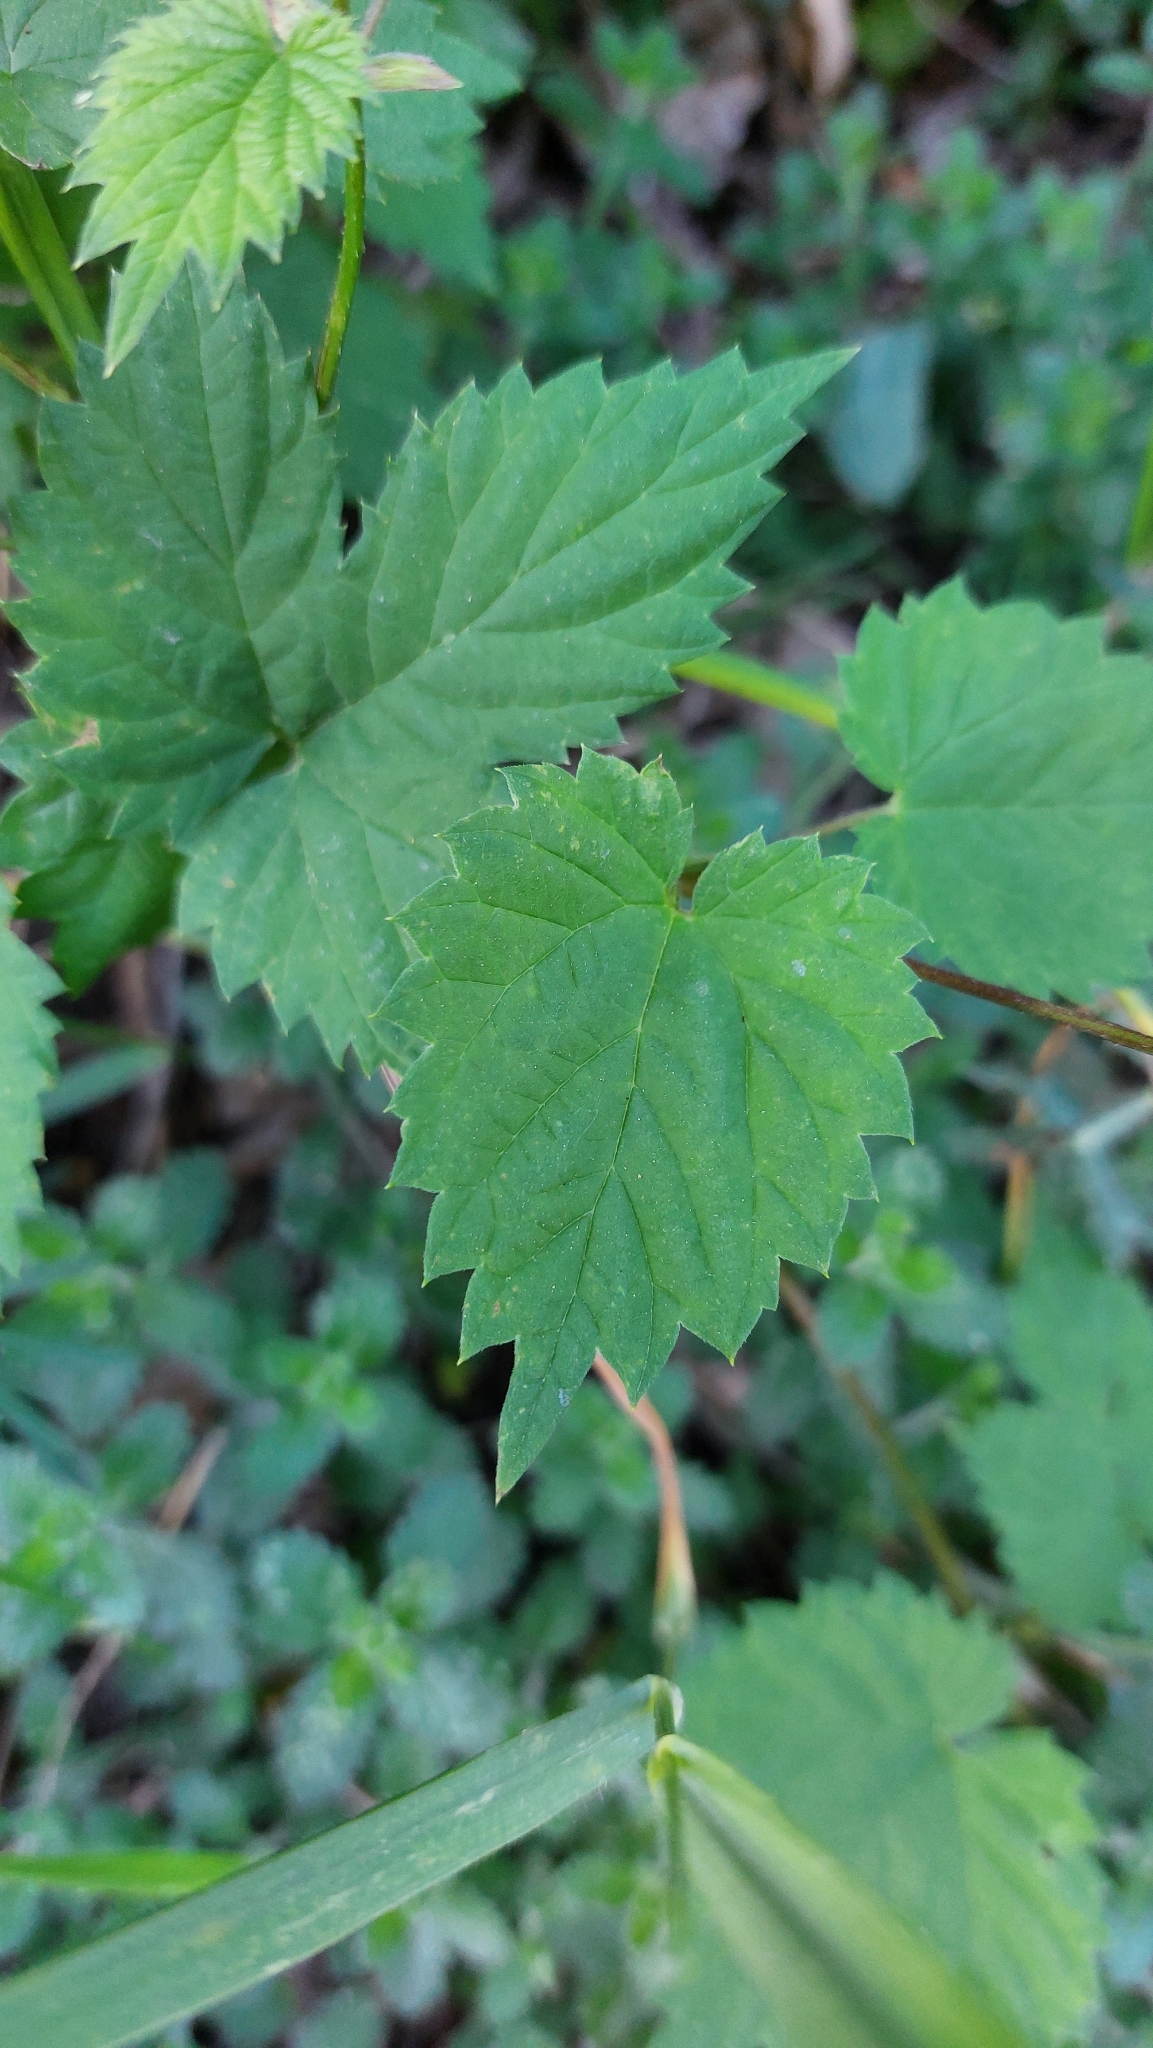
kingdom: Plantae
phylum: Tracheophyta
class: Magnoliopsida
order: Rosales
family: Cannabaceae
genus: Humulus
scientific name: Humulus lupulus
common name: Hop
